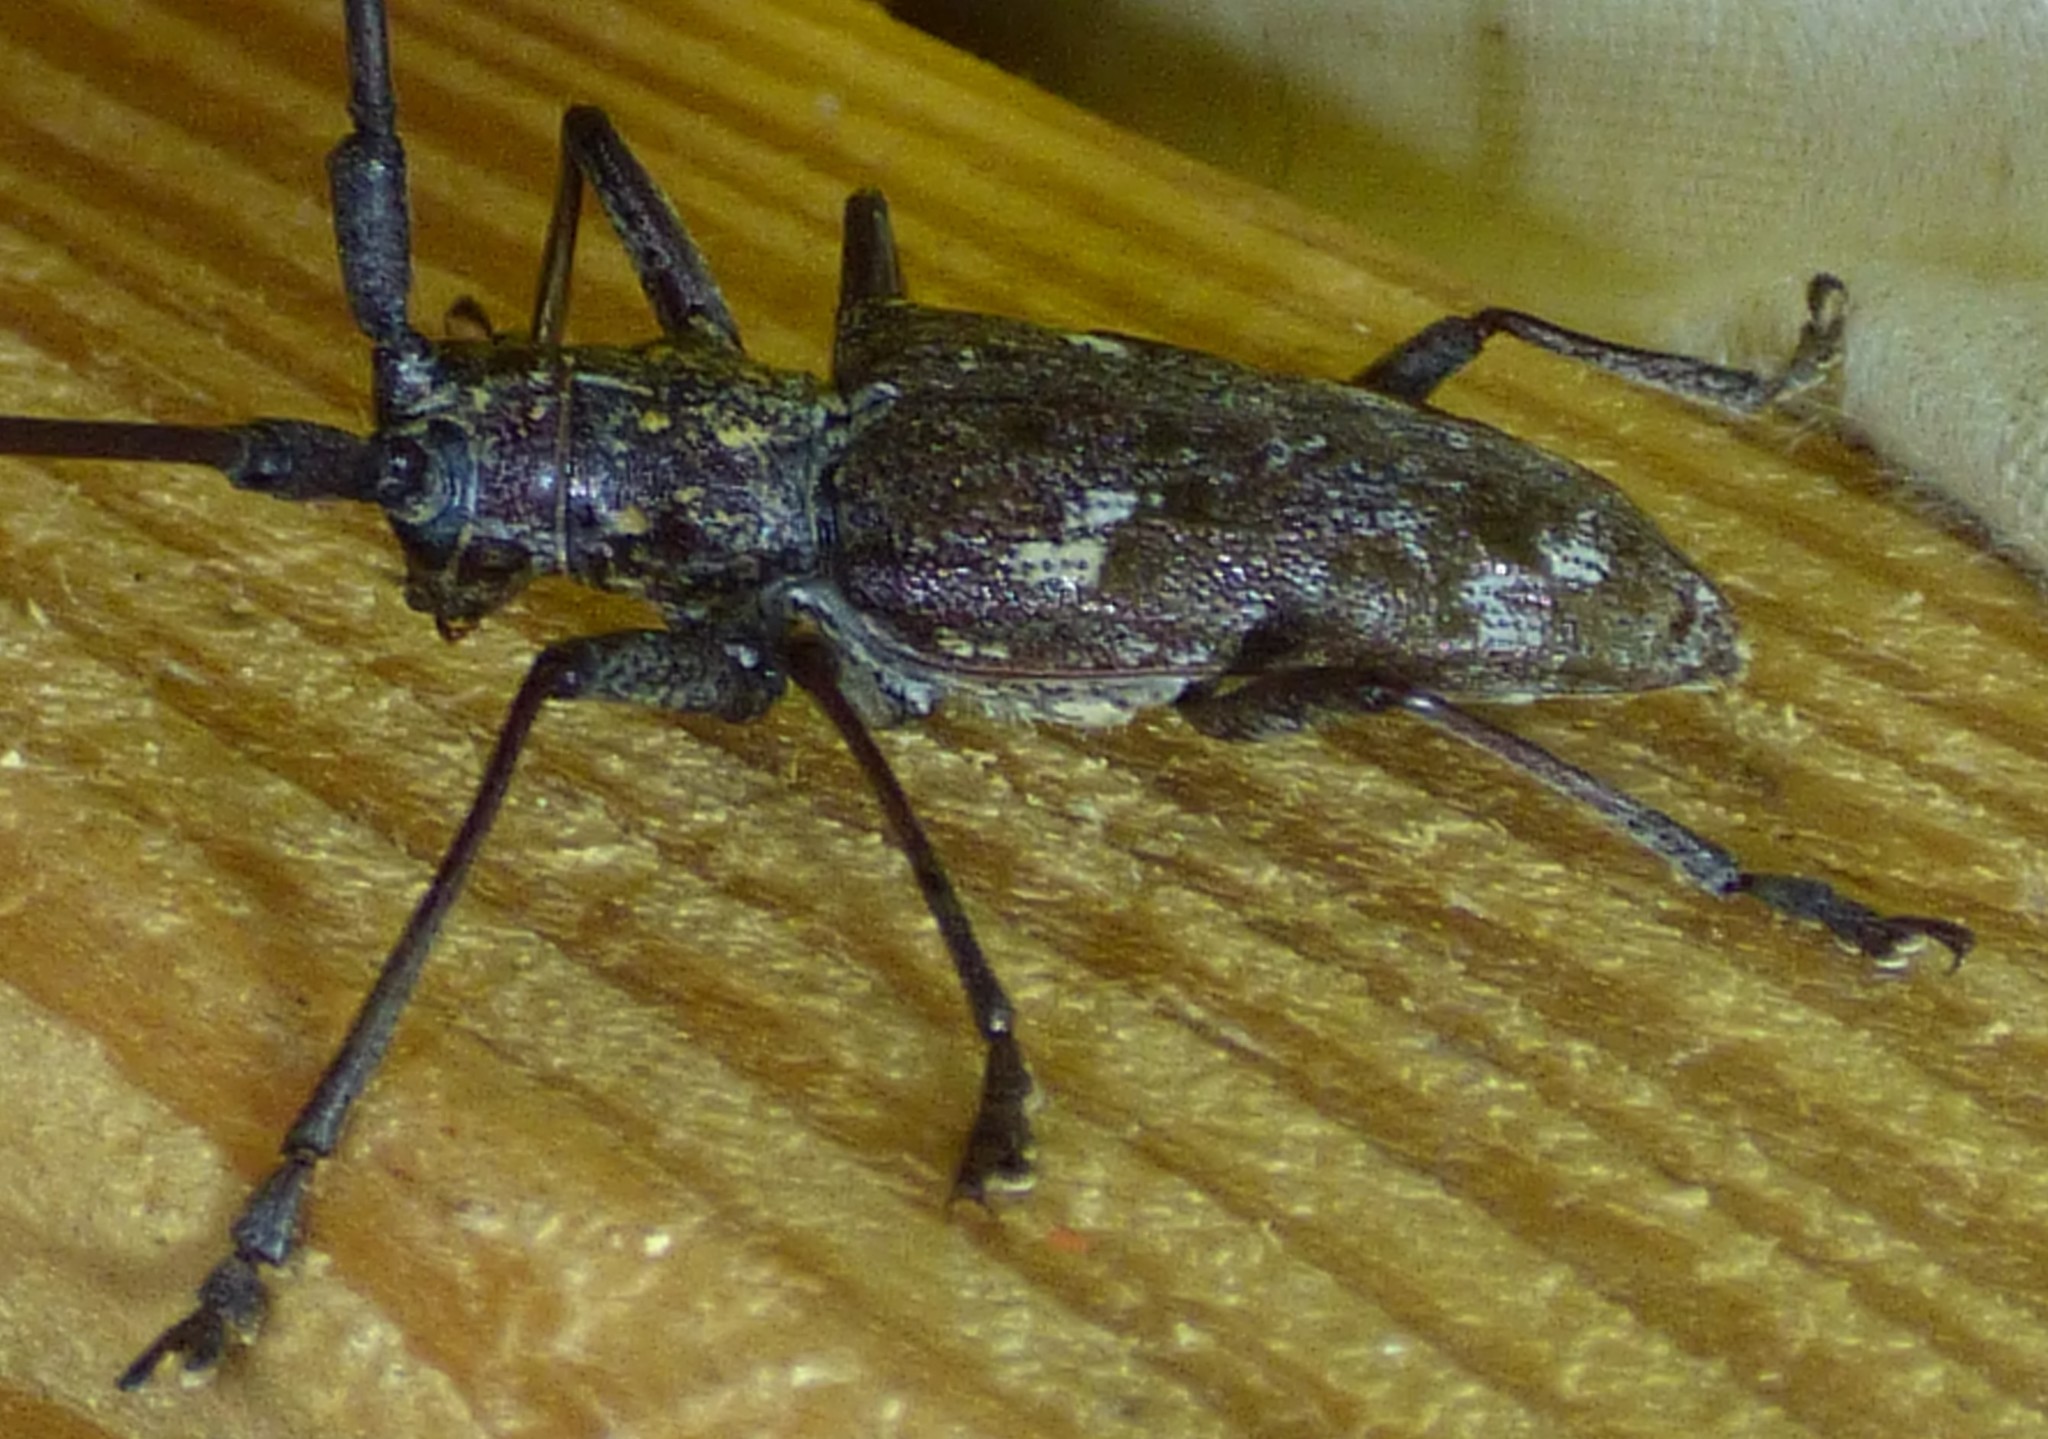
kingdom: Animalia
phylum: Arthropoda
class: Insecta
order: Coleoptera
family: Cerambycidae
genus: Monochamus
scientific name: Monochamus carolinensis
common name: Carolina pine sawyer
